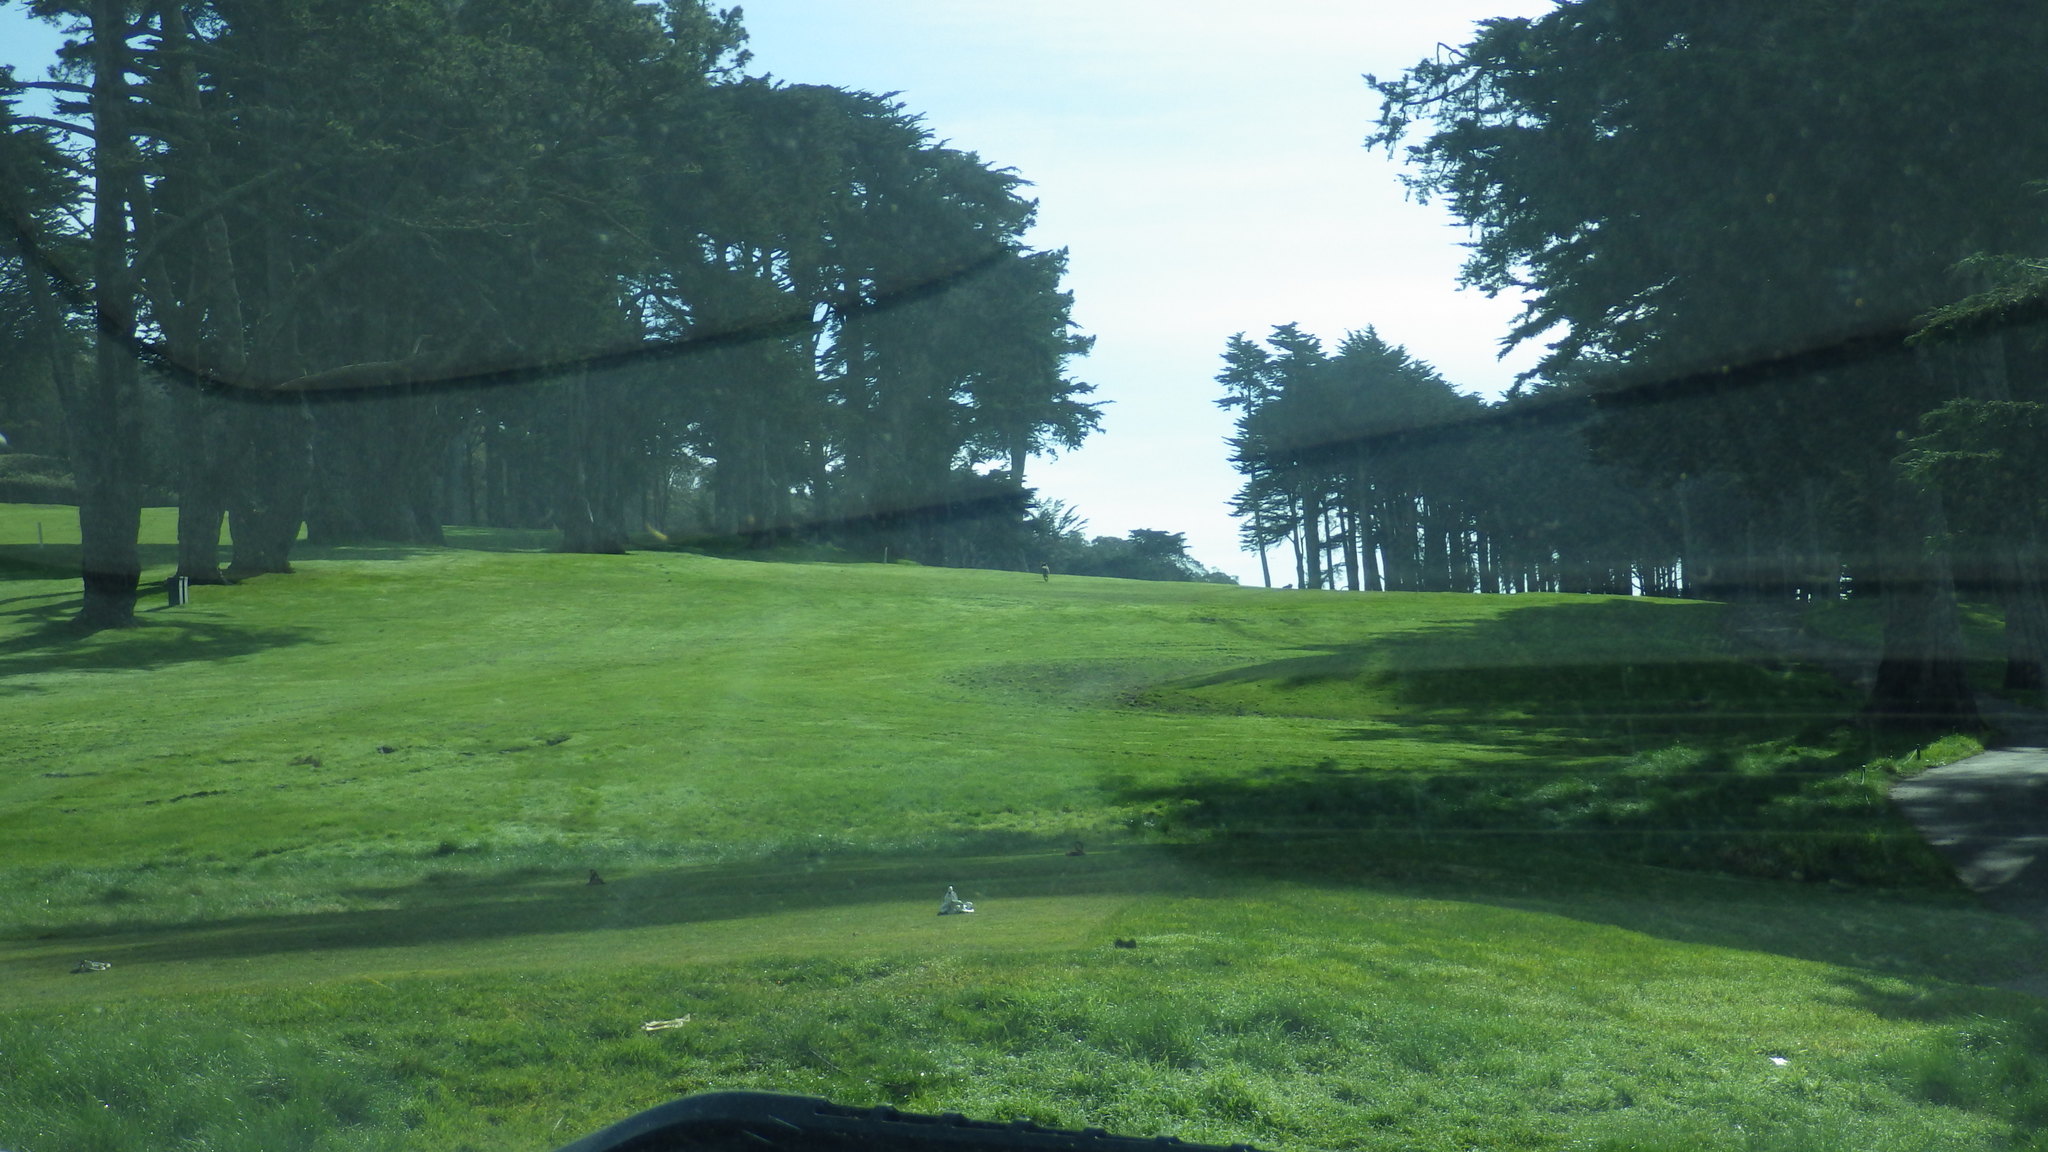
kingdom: Animalia
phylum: Chordata
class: Mammalia
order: Carnivora
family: Canidae
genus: Canis
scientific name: Canis latrans
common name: Coyote
